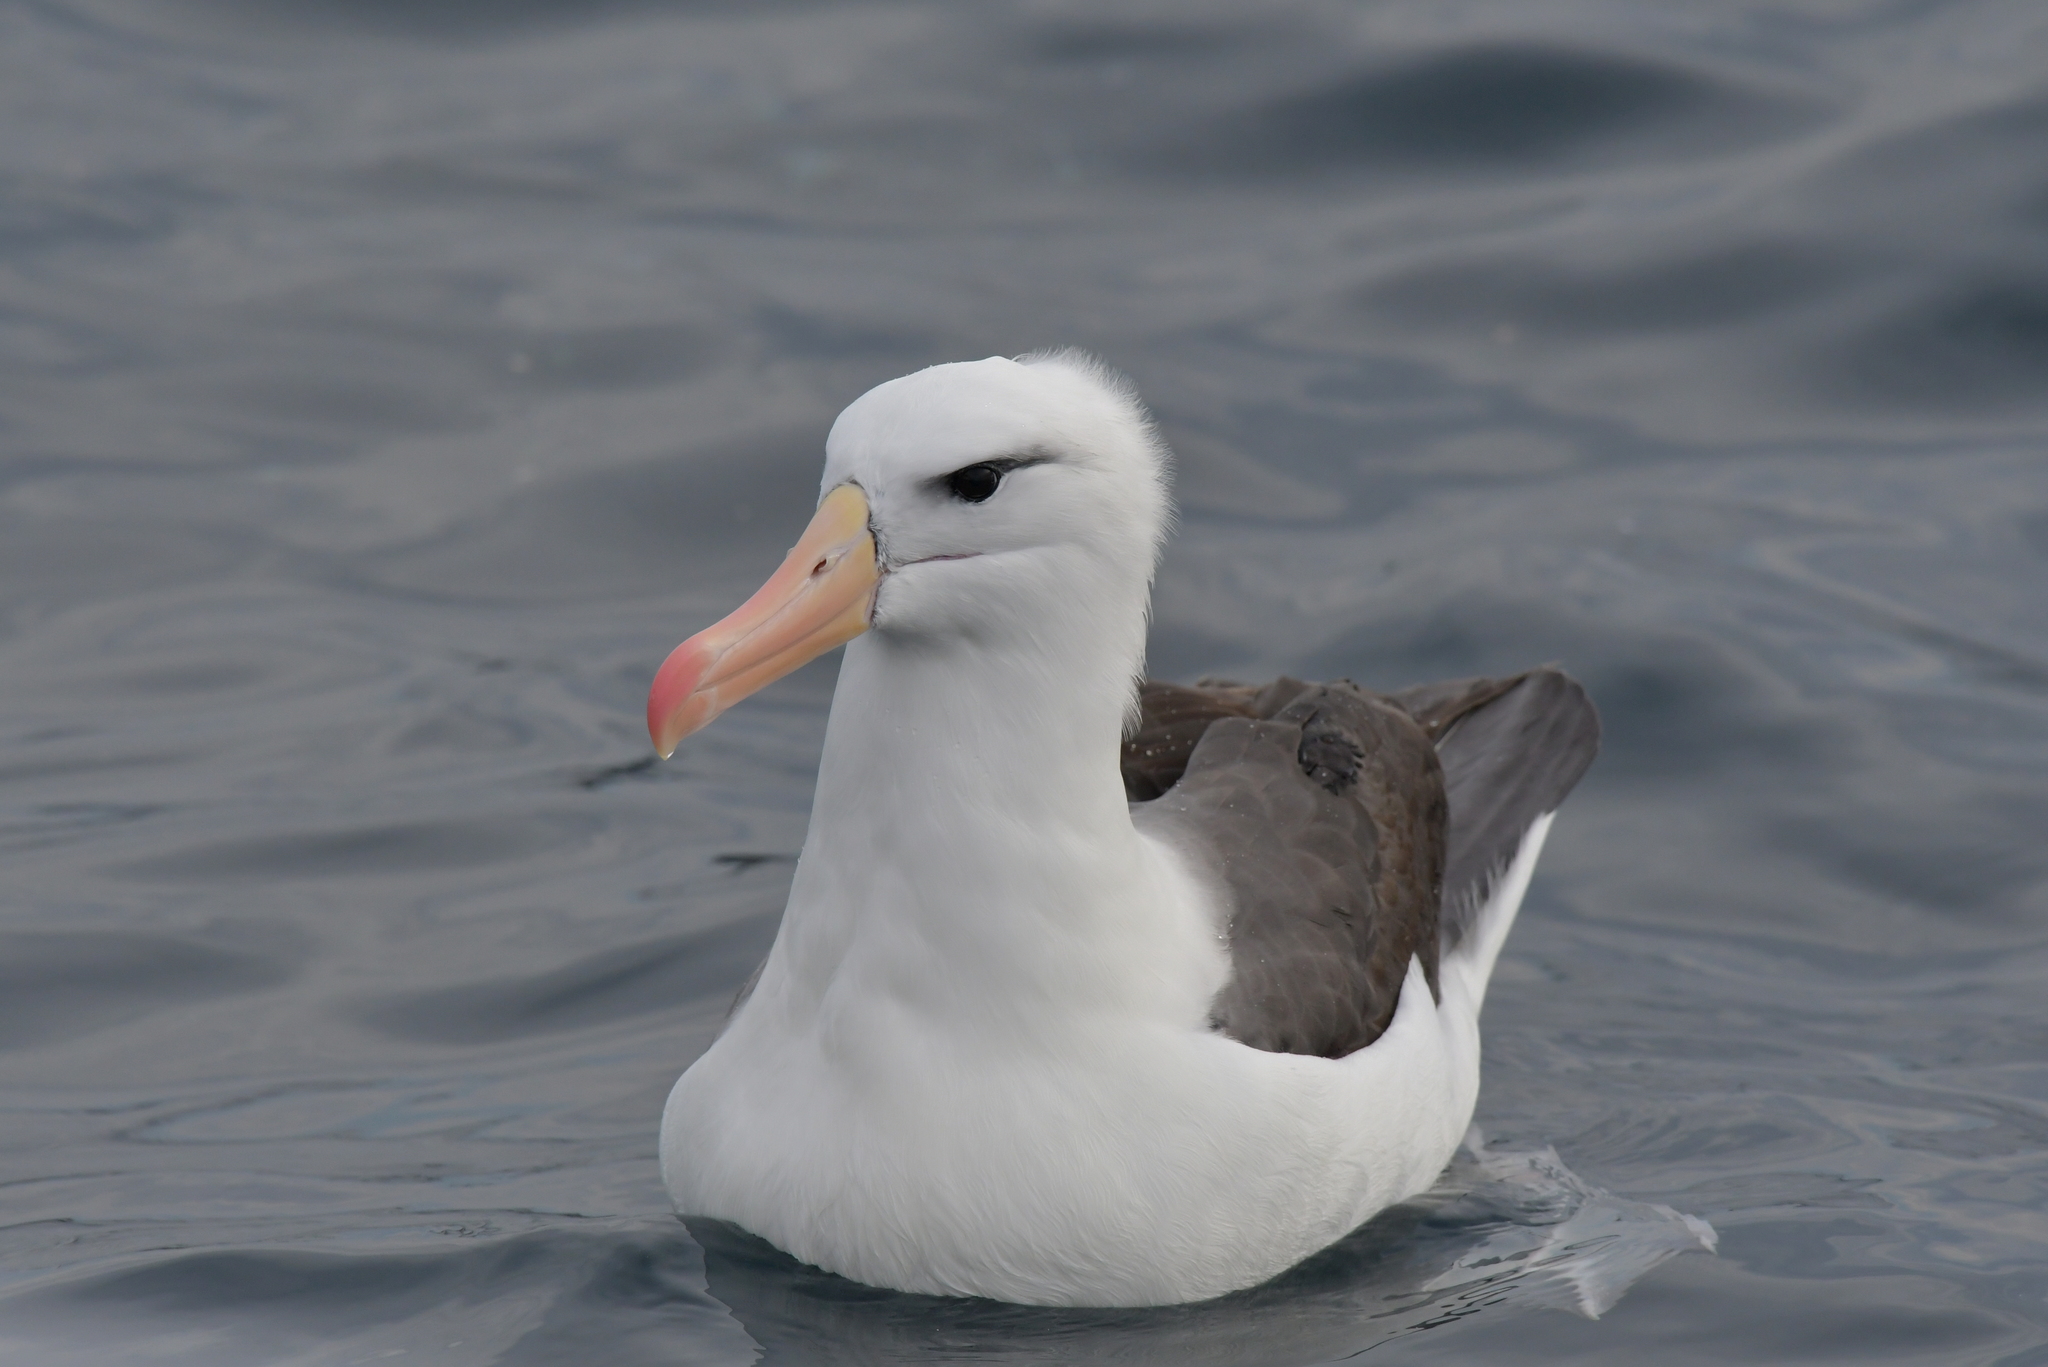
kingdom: Animalia
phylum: Chordata
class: Aves
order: Procellariiformes
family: Diomedeidae
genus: Thalassarche
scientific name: Thalassarche melanophris
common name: Black-browed albatross
